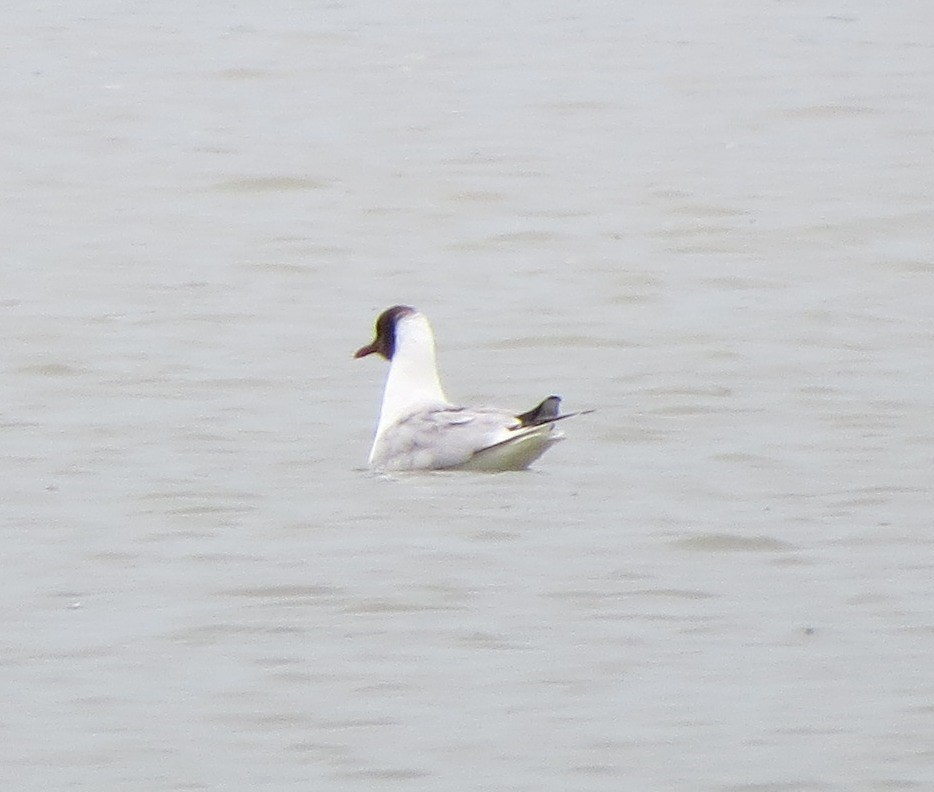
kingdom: Animalia
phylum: Chordata
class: Aves
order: Charadriiformes
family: Laridae
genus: Chroicocephalus
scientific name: Chroicocephalus ridibundus
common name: Black-headed gull
